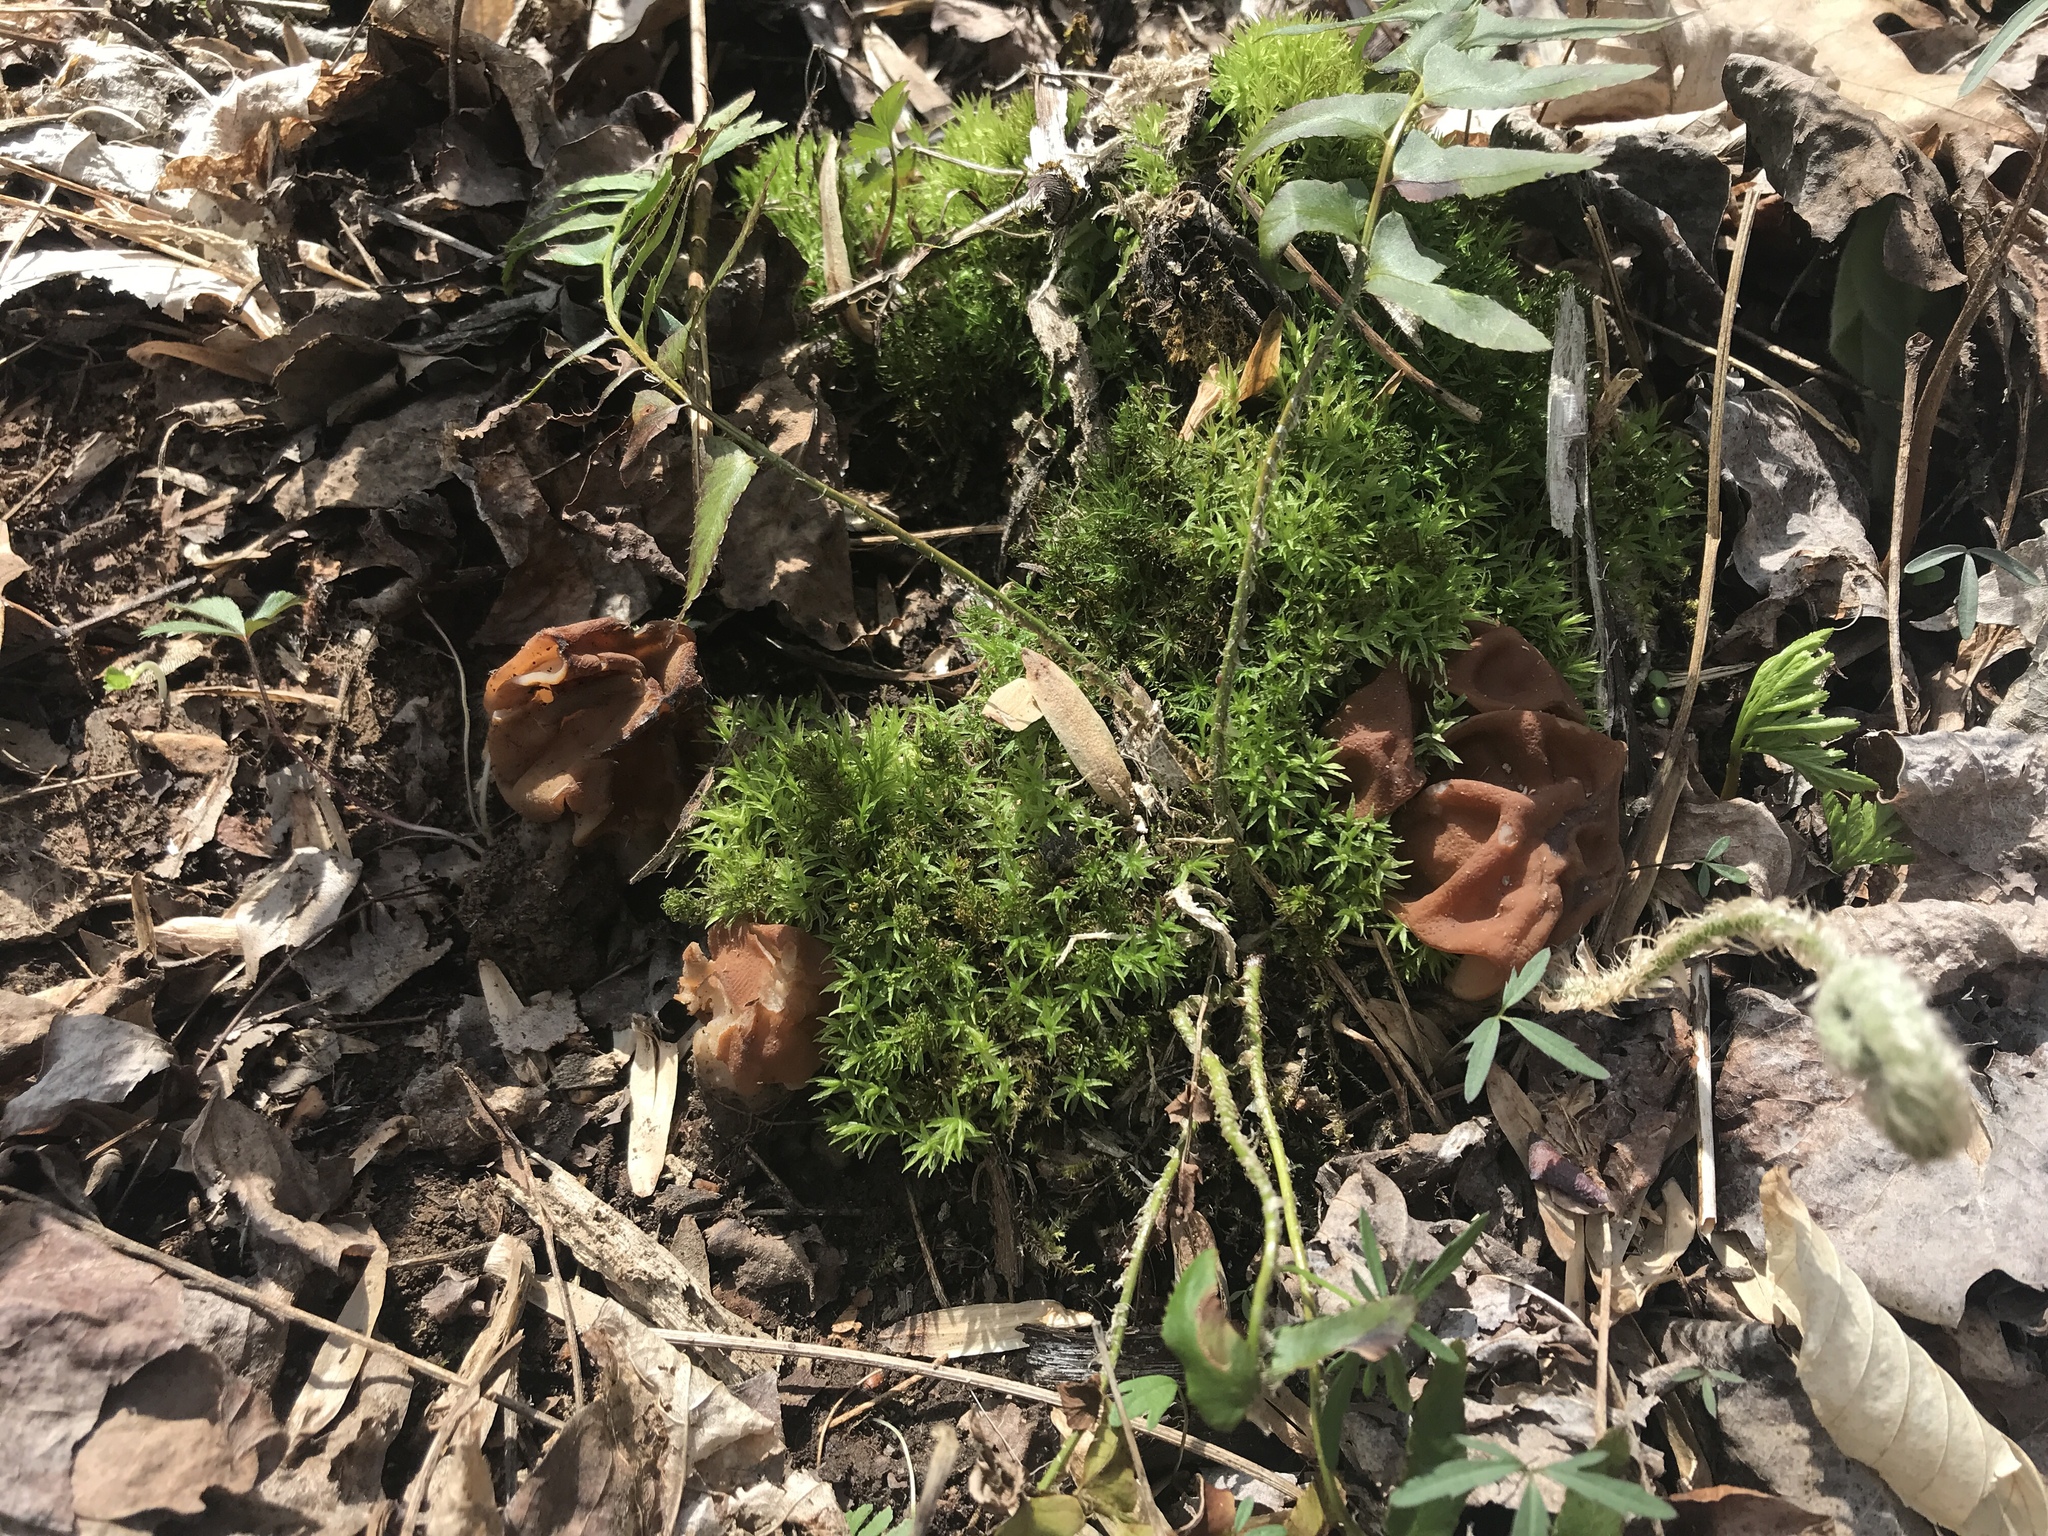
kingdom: Fungi
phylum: Ascomycota
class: Pezizomycetes
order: Pezizales
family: Discinaceae
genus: Gyromitra
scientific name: Gyromitra korfii
